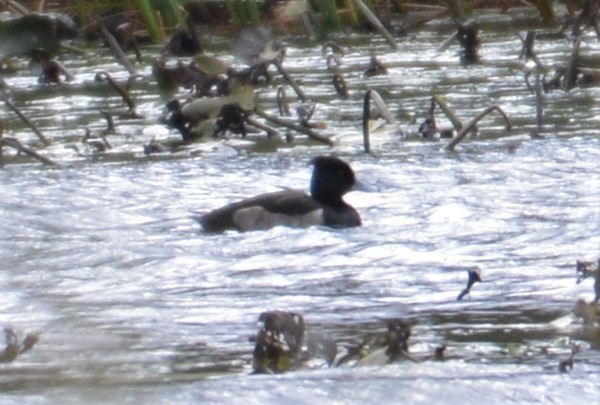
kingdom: Animalia
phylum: Chordata
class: Aves
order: Anseriformes
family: Anatidae
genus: Aythya
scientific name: Aythya fuligula
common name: Tufted duck
